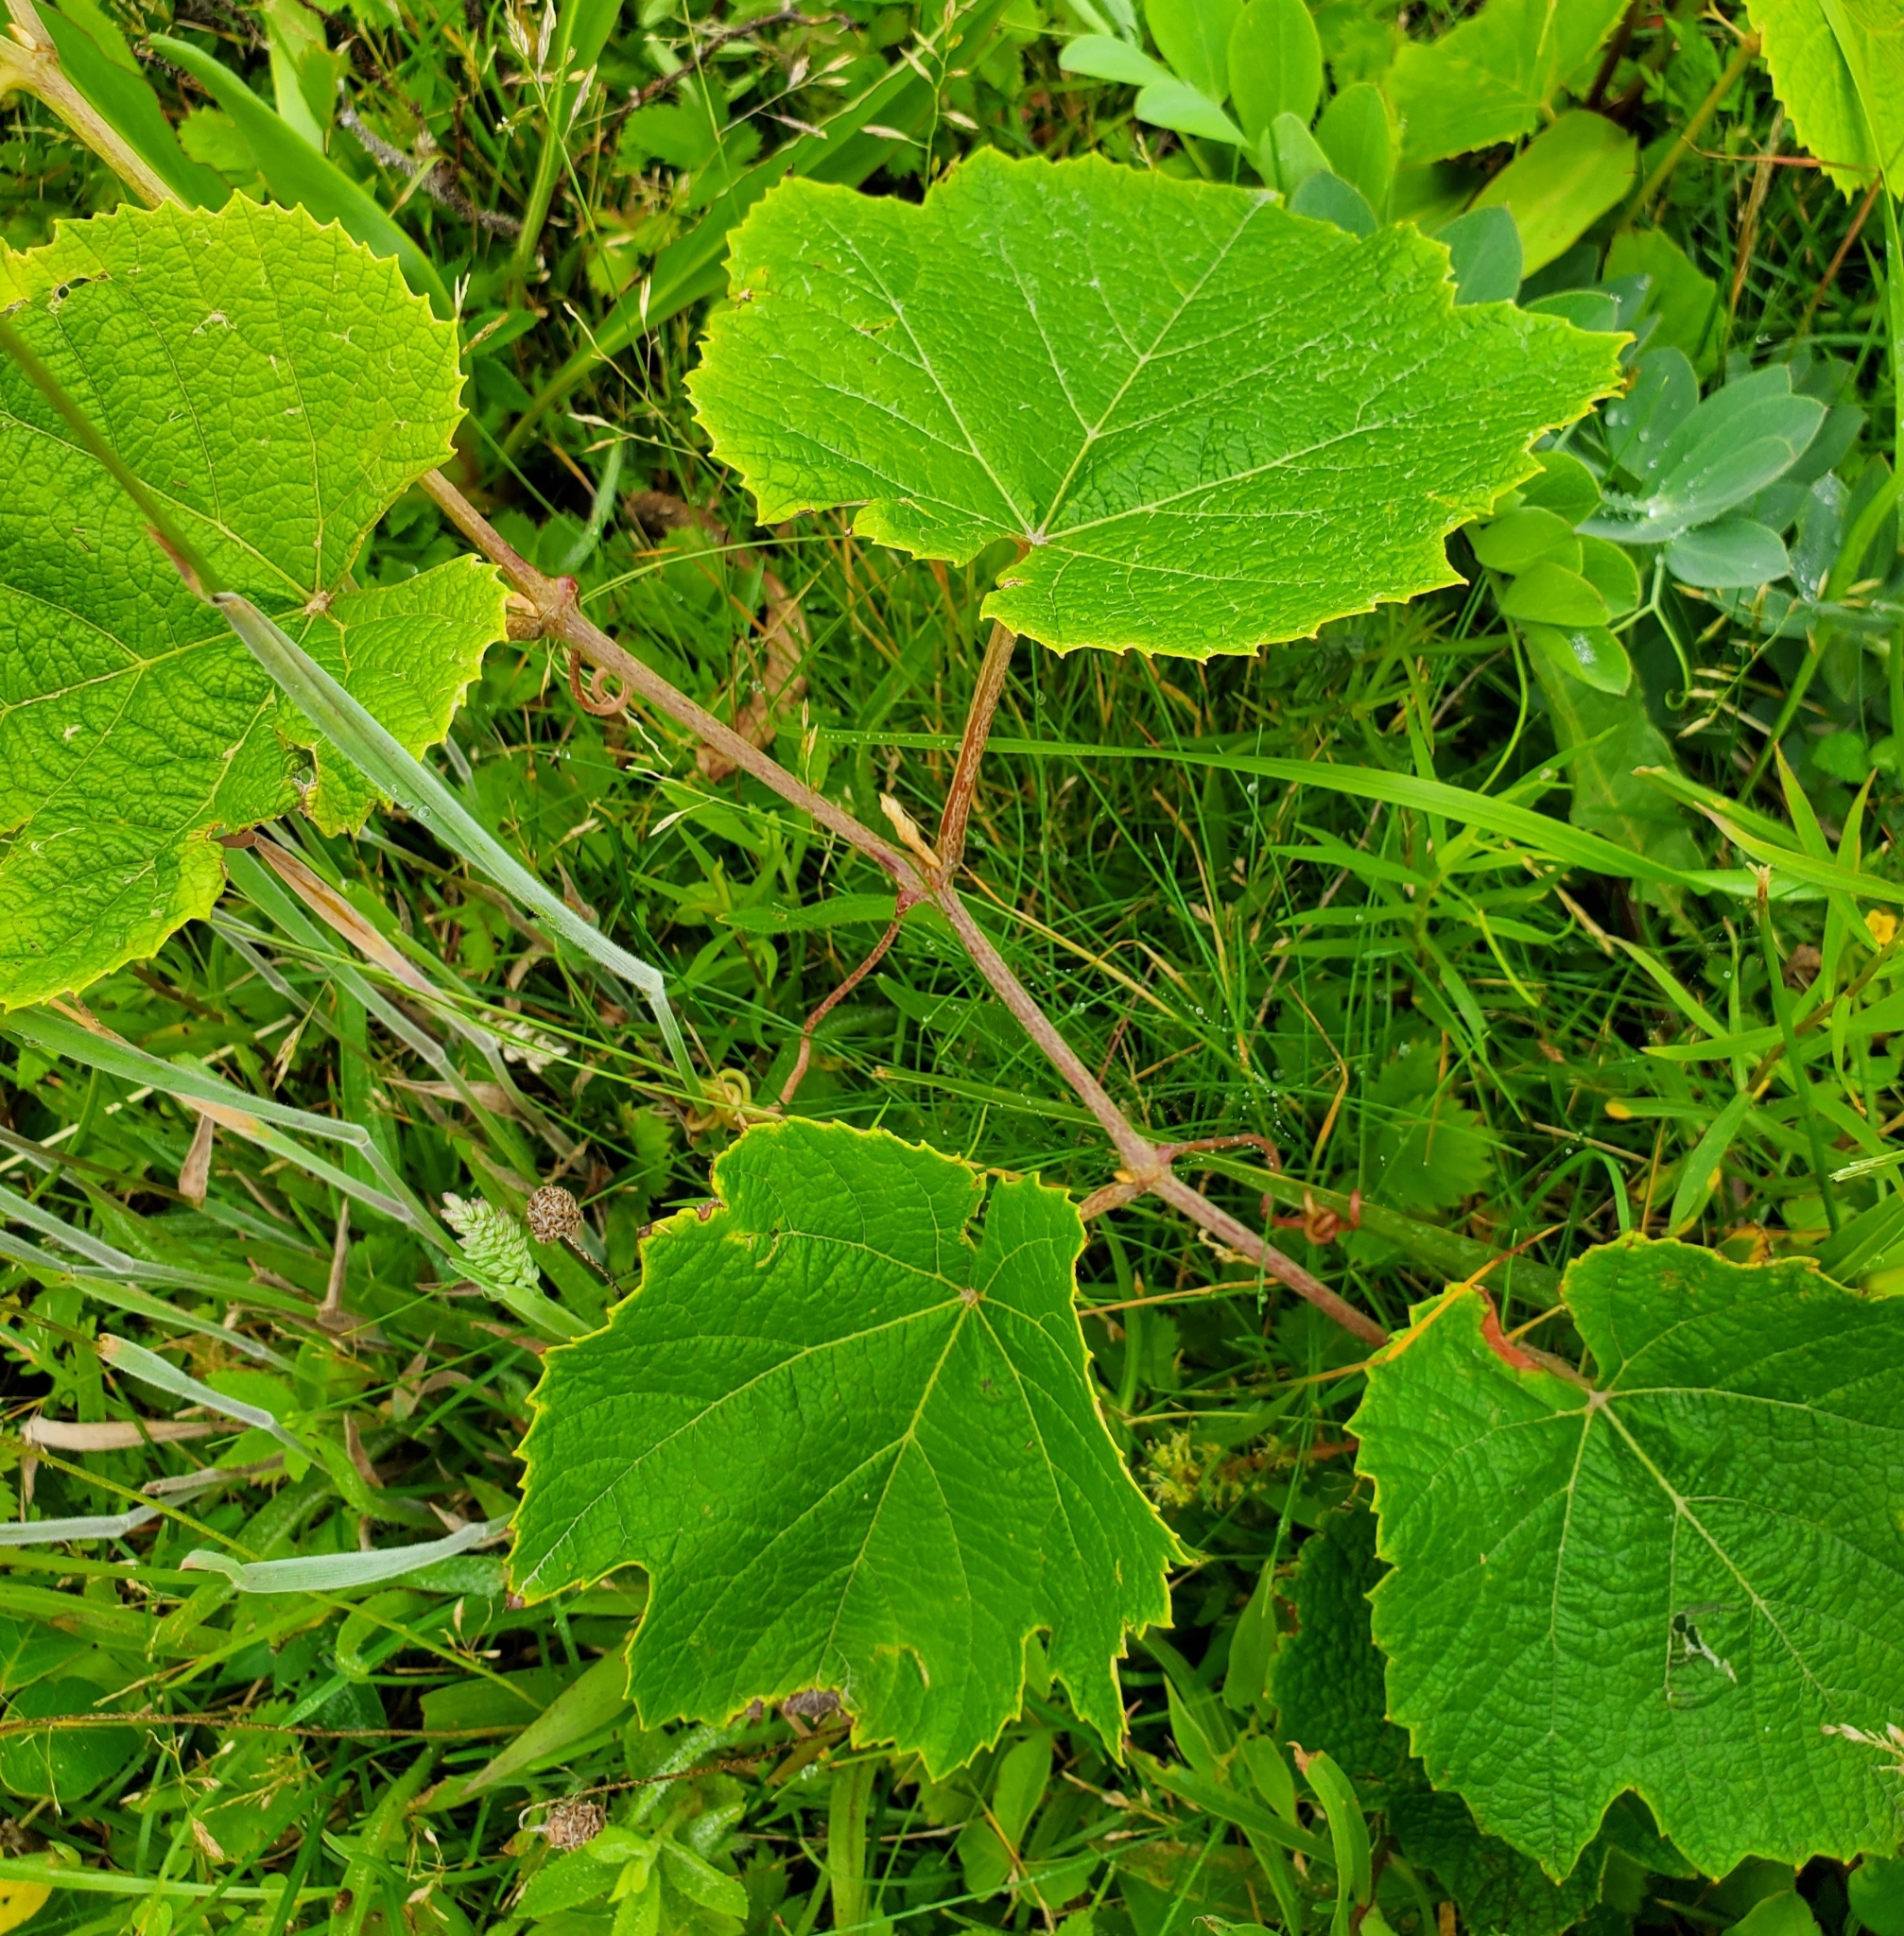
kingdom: Plantae
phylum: Tracheophyta
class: Magnoliopsida
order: Vitales
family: Vitaceae
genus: Vitis
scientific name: Vitis labrusca
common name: Concord grape
